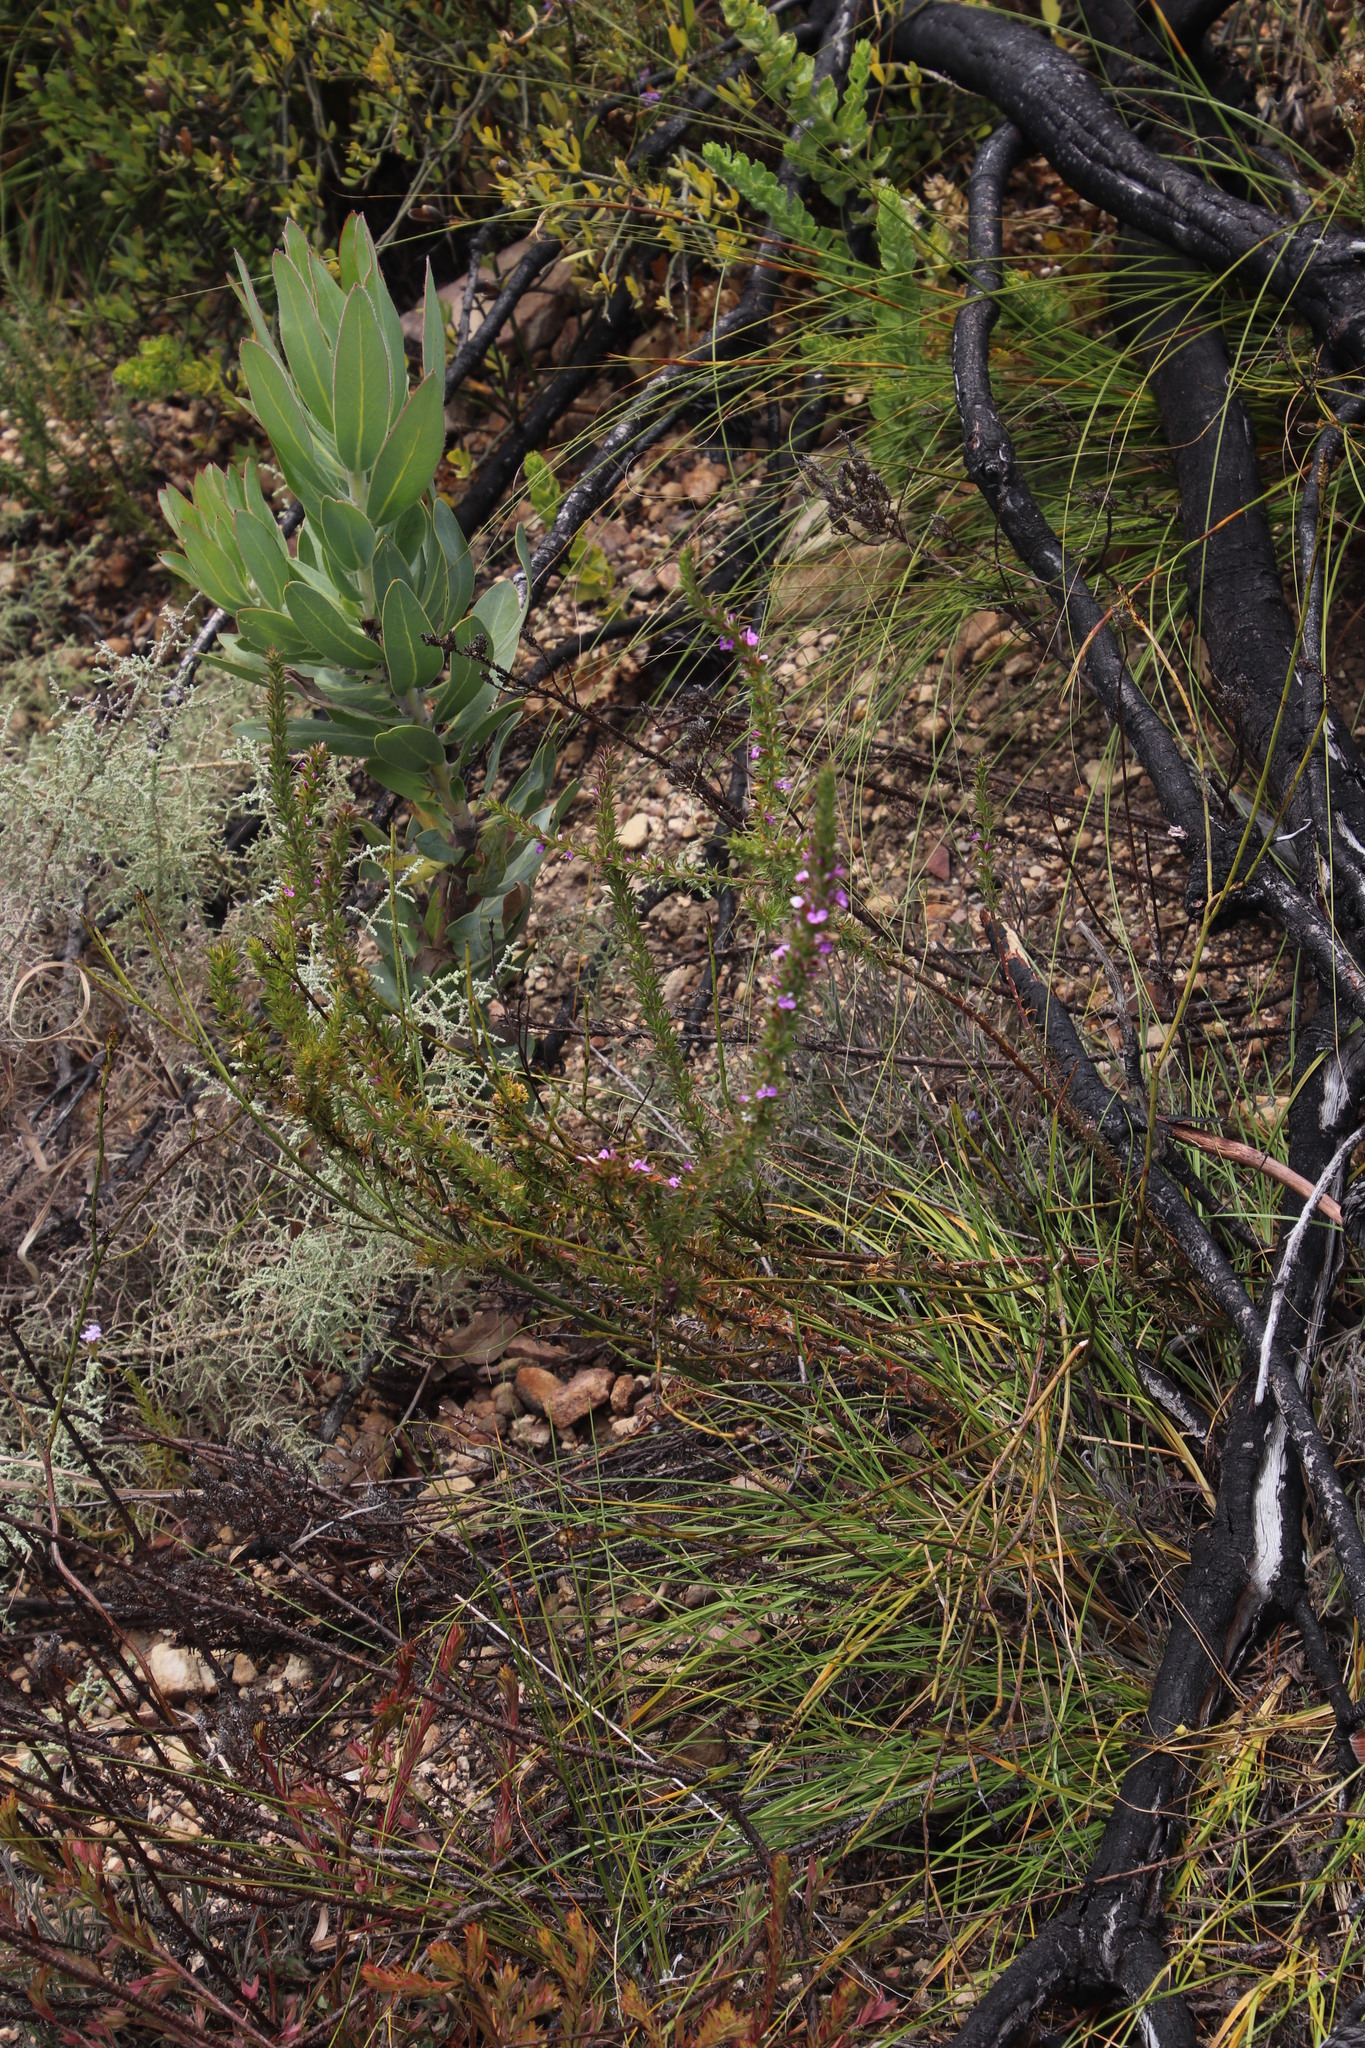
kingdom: Plantae
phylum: Tracheophyta
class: Magnoliopsida
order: Fabales
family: Polygalaceae
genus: Muraltia
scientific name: Muraltia heisteria
